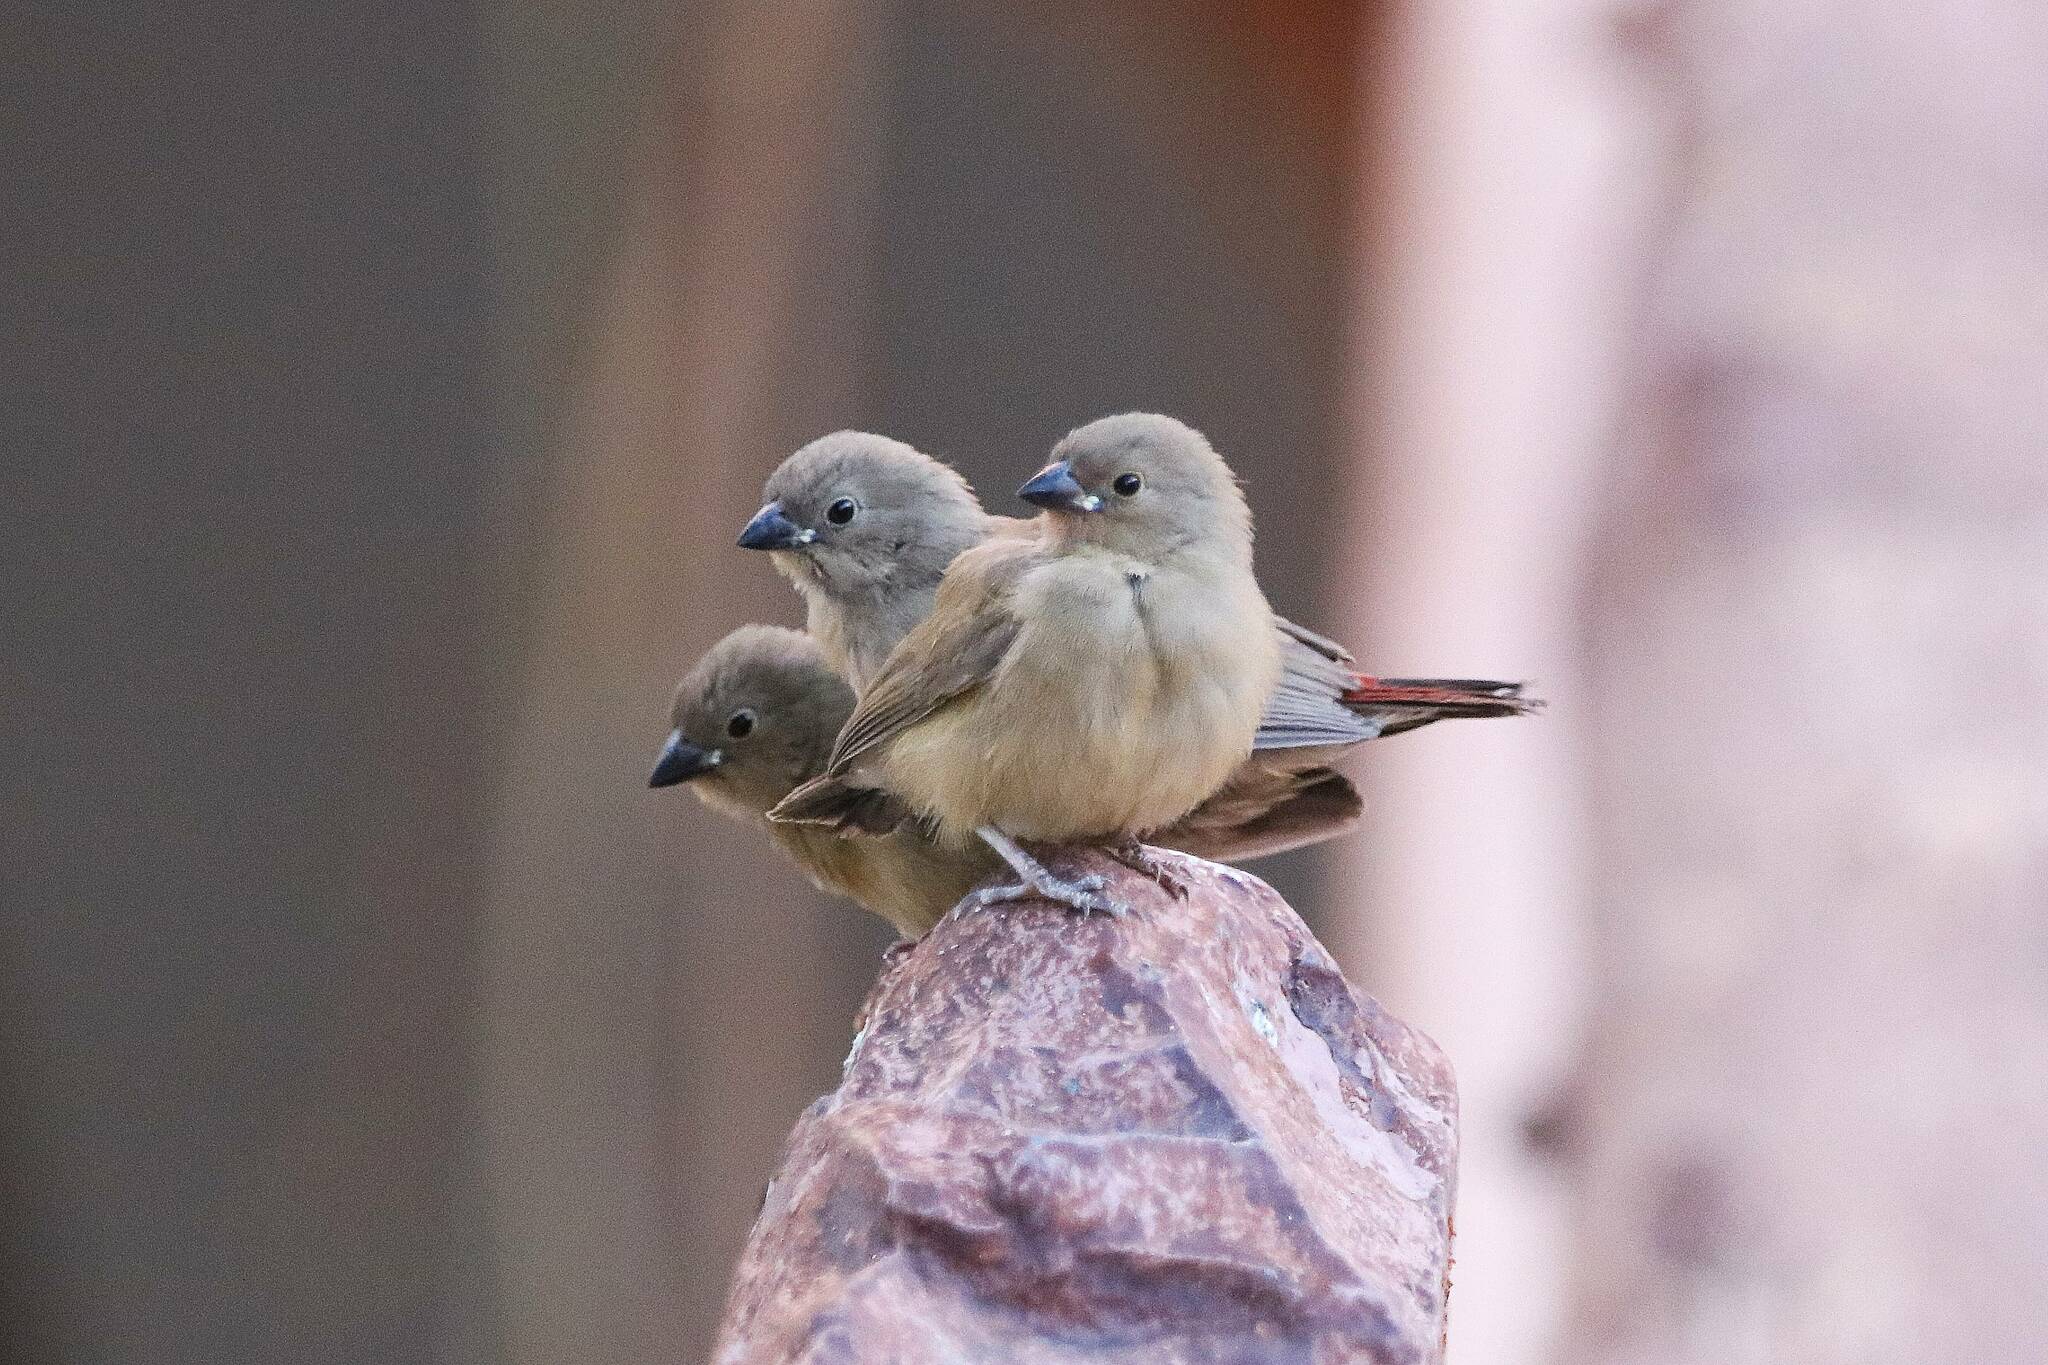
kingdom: Animalia
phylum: Chordata
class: Aves
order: Passeriformes
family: Estrildidae
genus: Lagonosticta
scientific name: Lagonosticta senegala
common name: Red-billed firefinch
